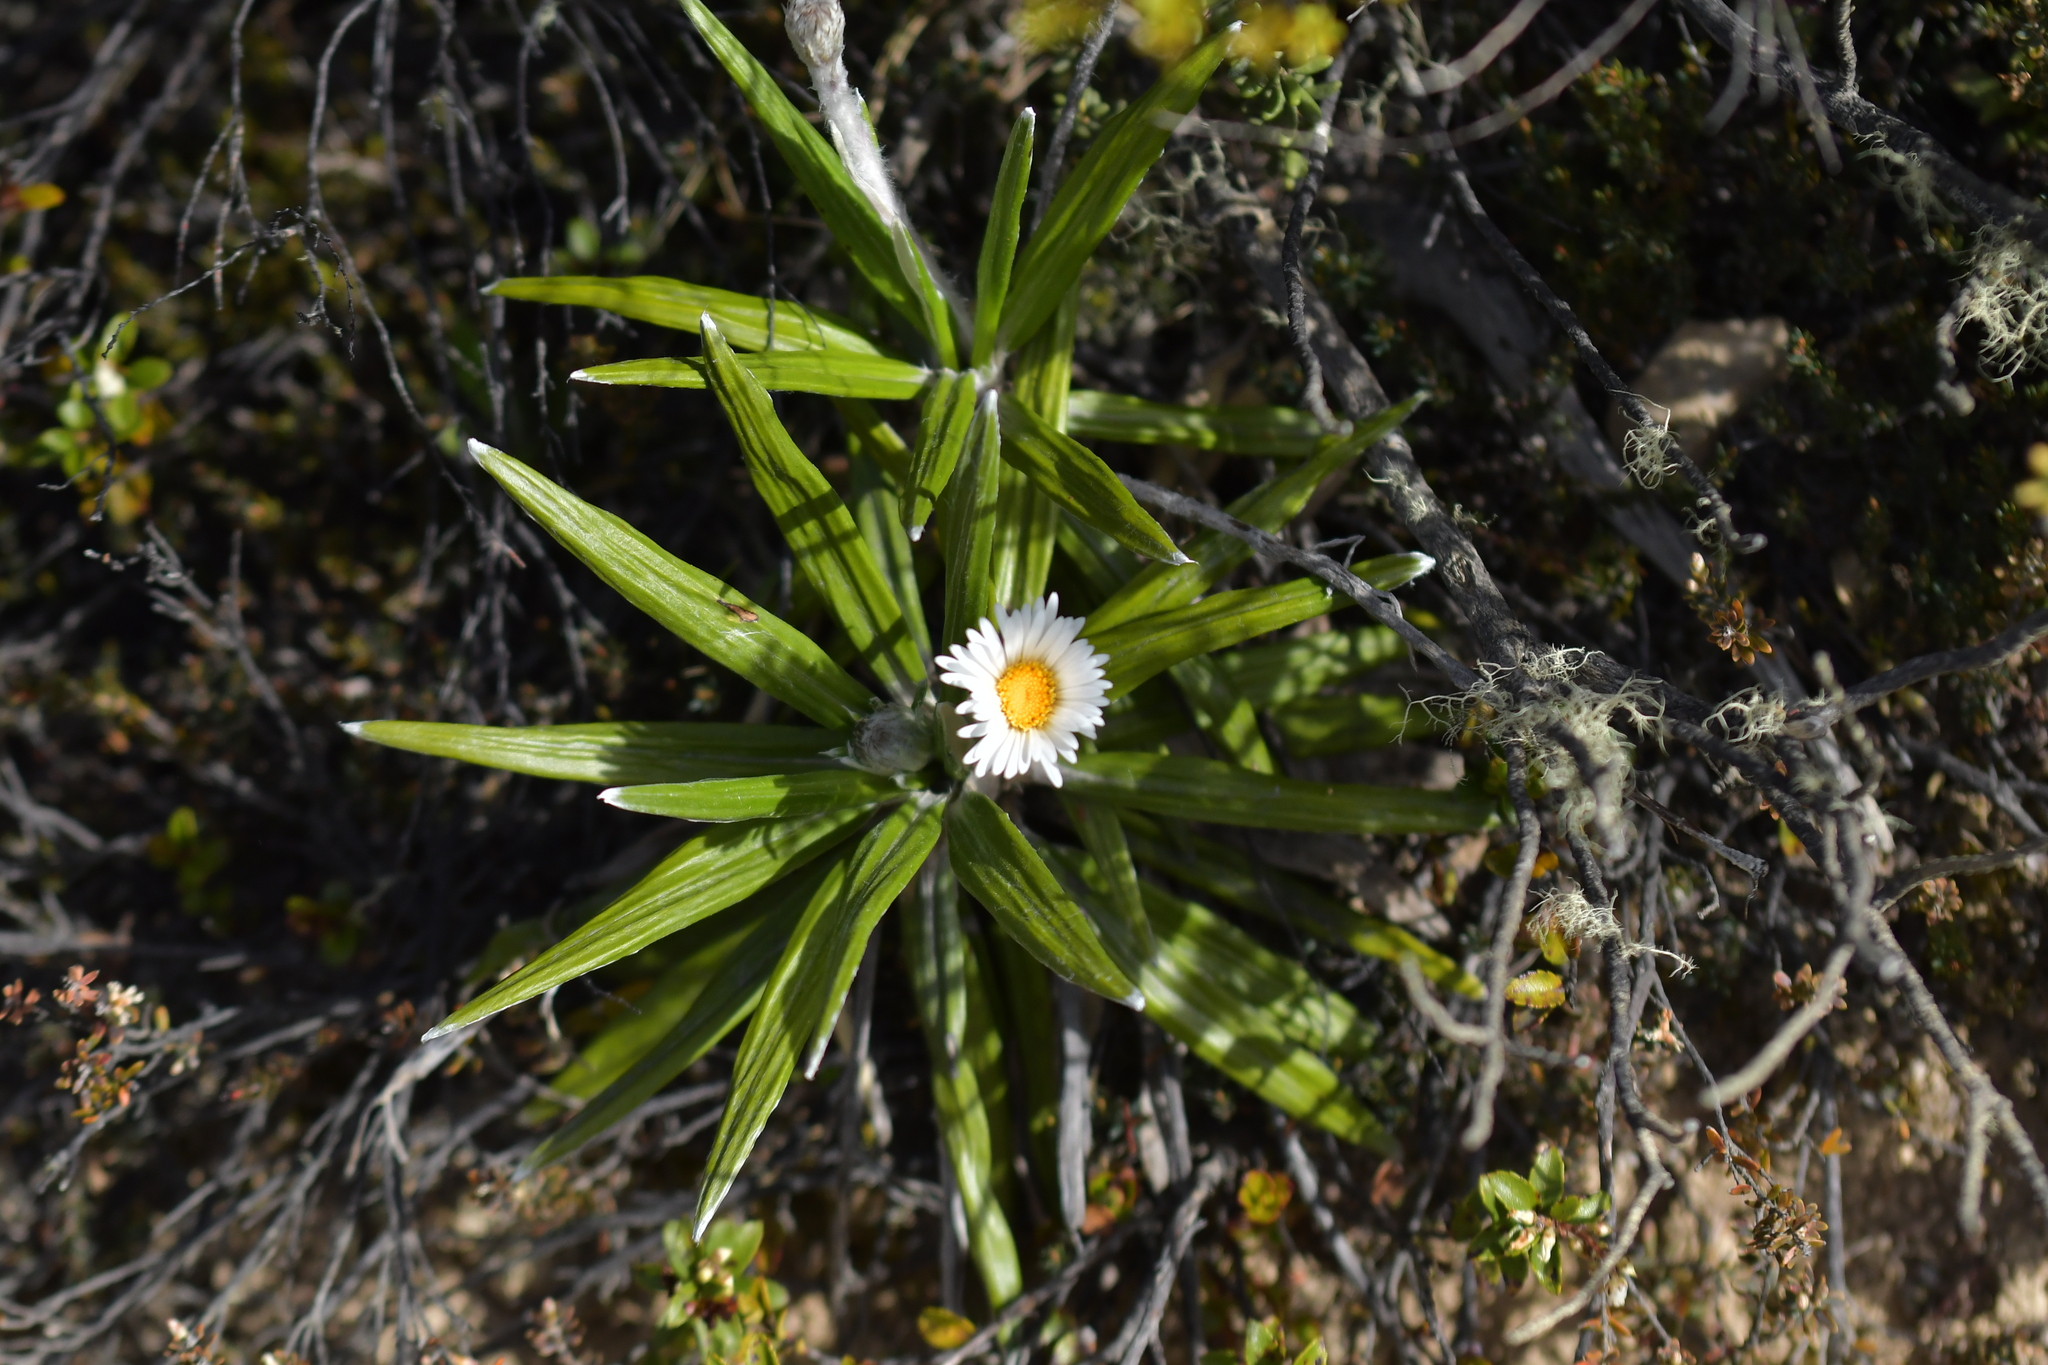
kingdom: Plantae
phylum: Tracheophyta
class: Magnoliopsida
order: Asterales
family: Asteraceae
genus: Celmisia
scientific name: Celmisia spectabilis
